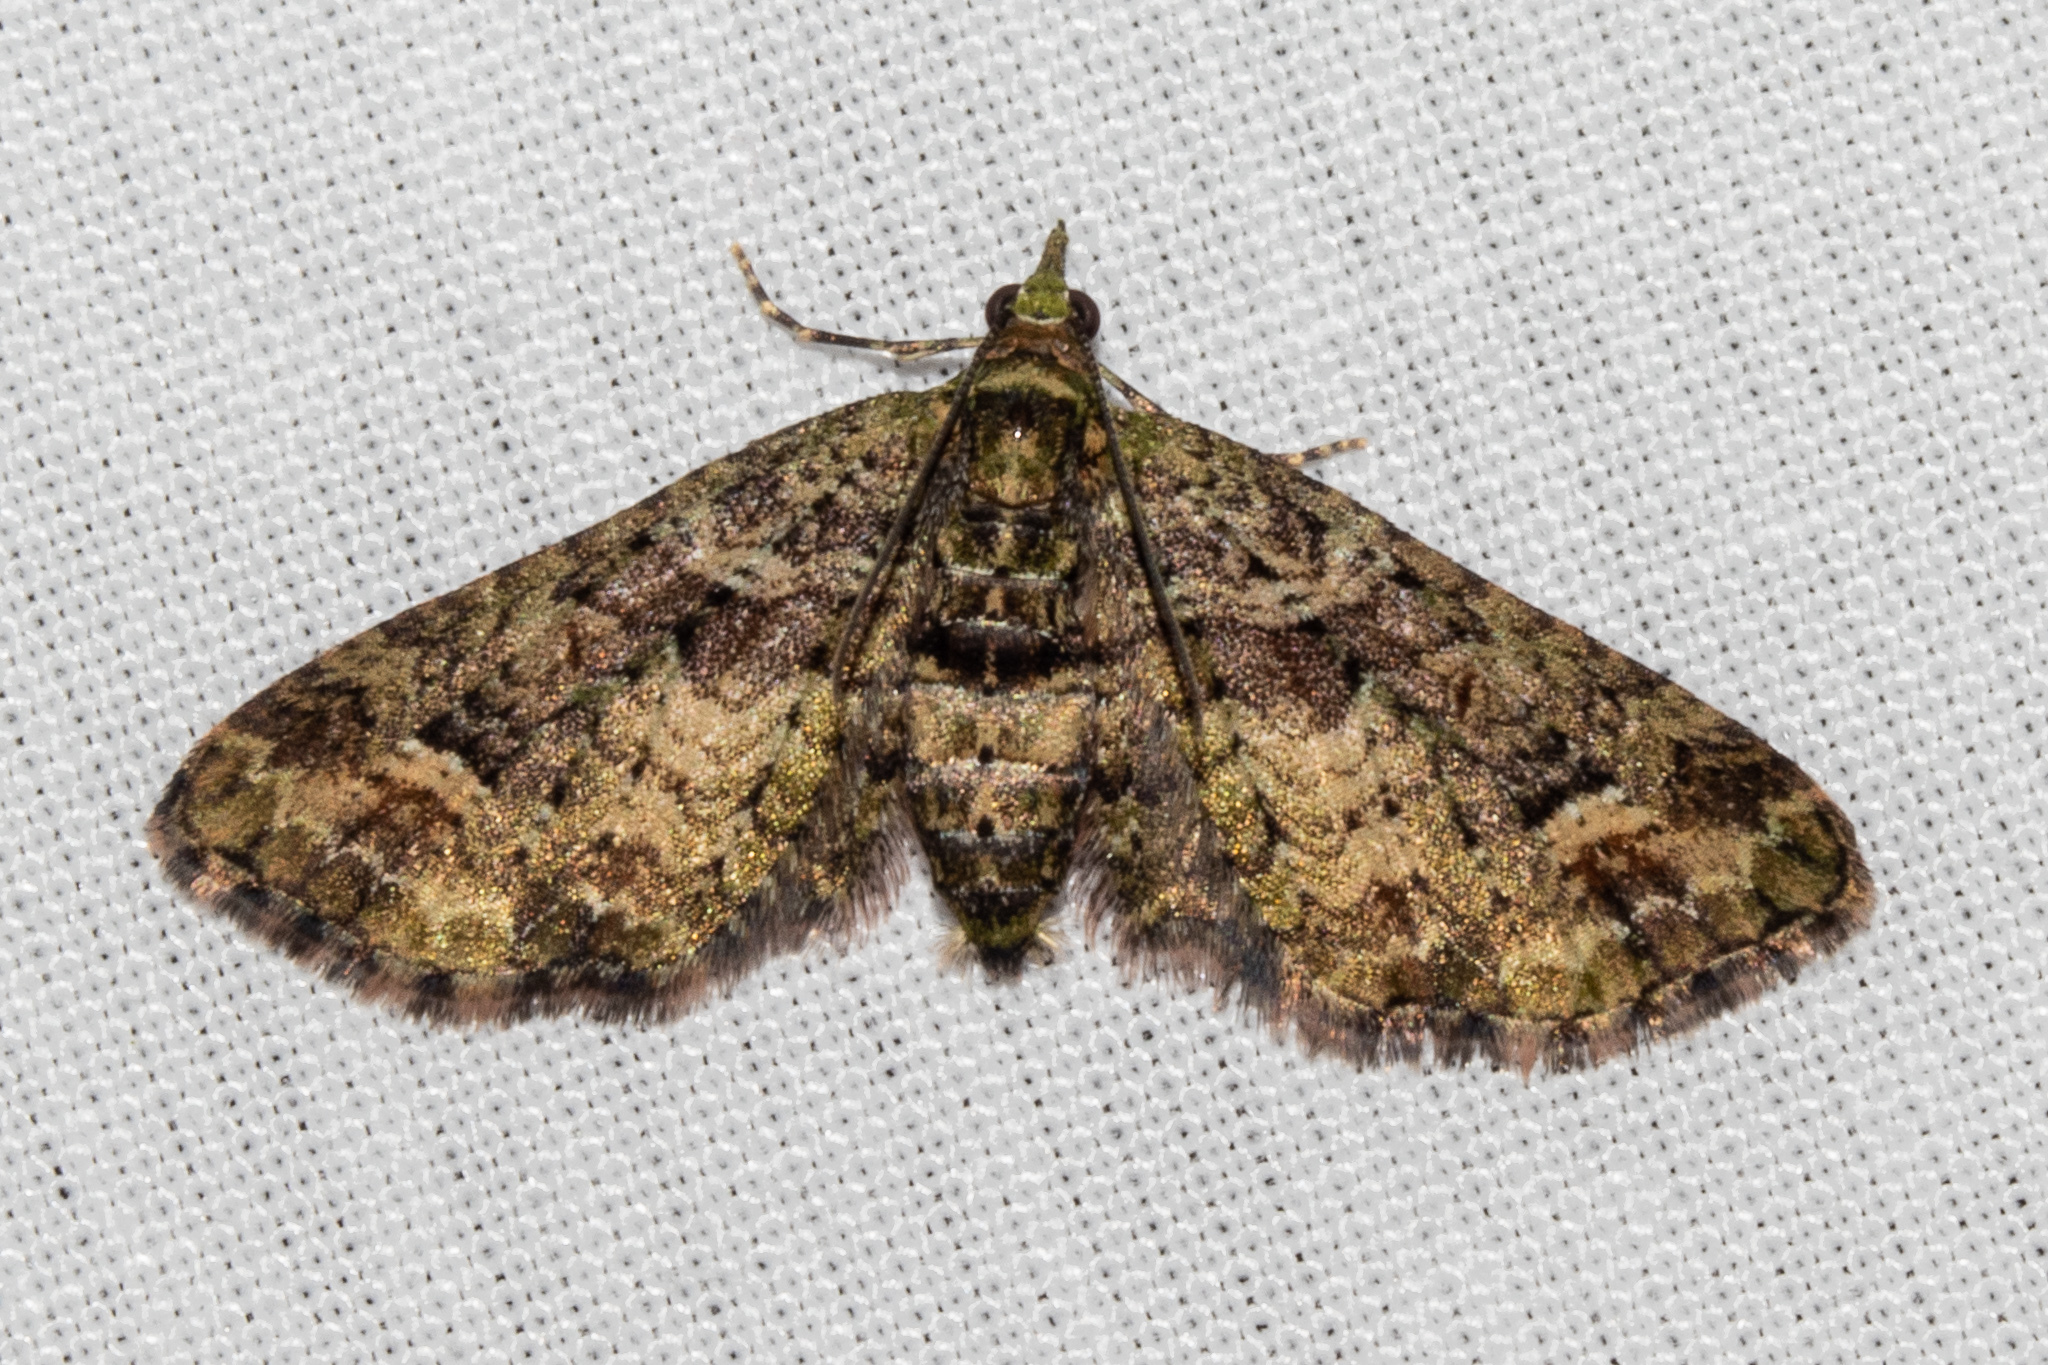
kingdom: Animalia
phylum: Arthropoda
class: Insecta
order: Lepidoptera
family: Geometridae
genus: Idaea
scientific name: Idaea mutanda
